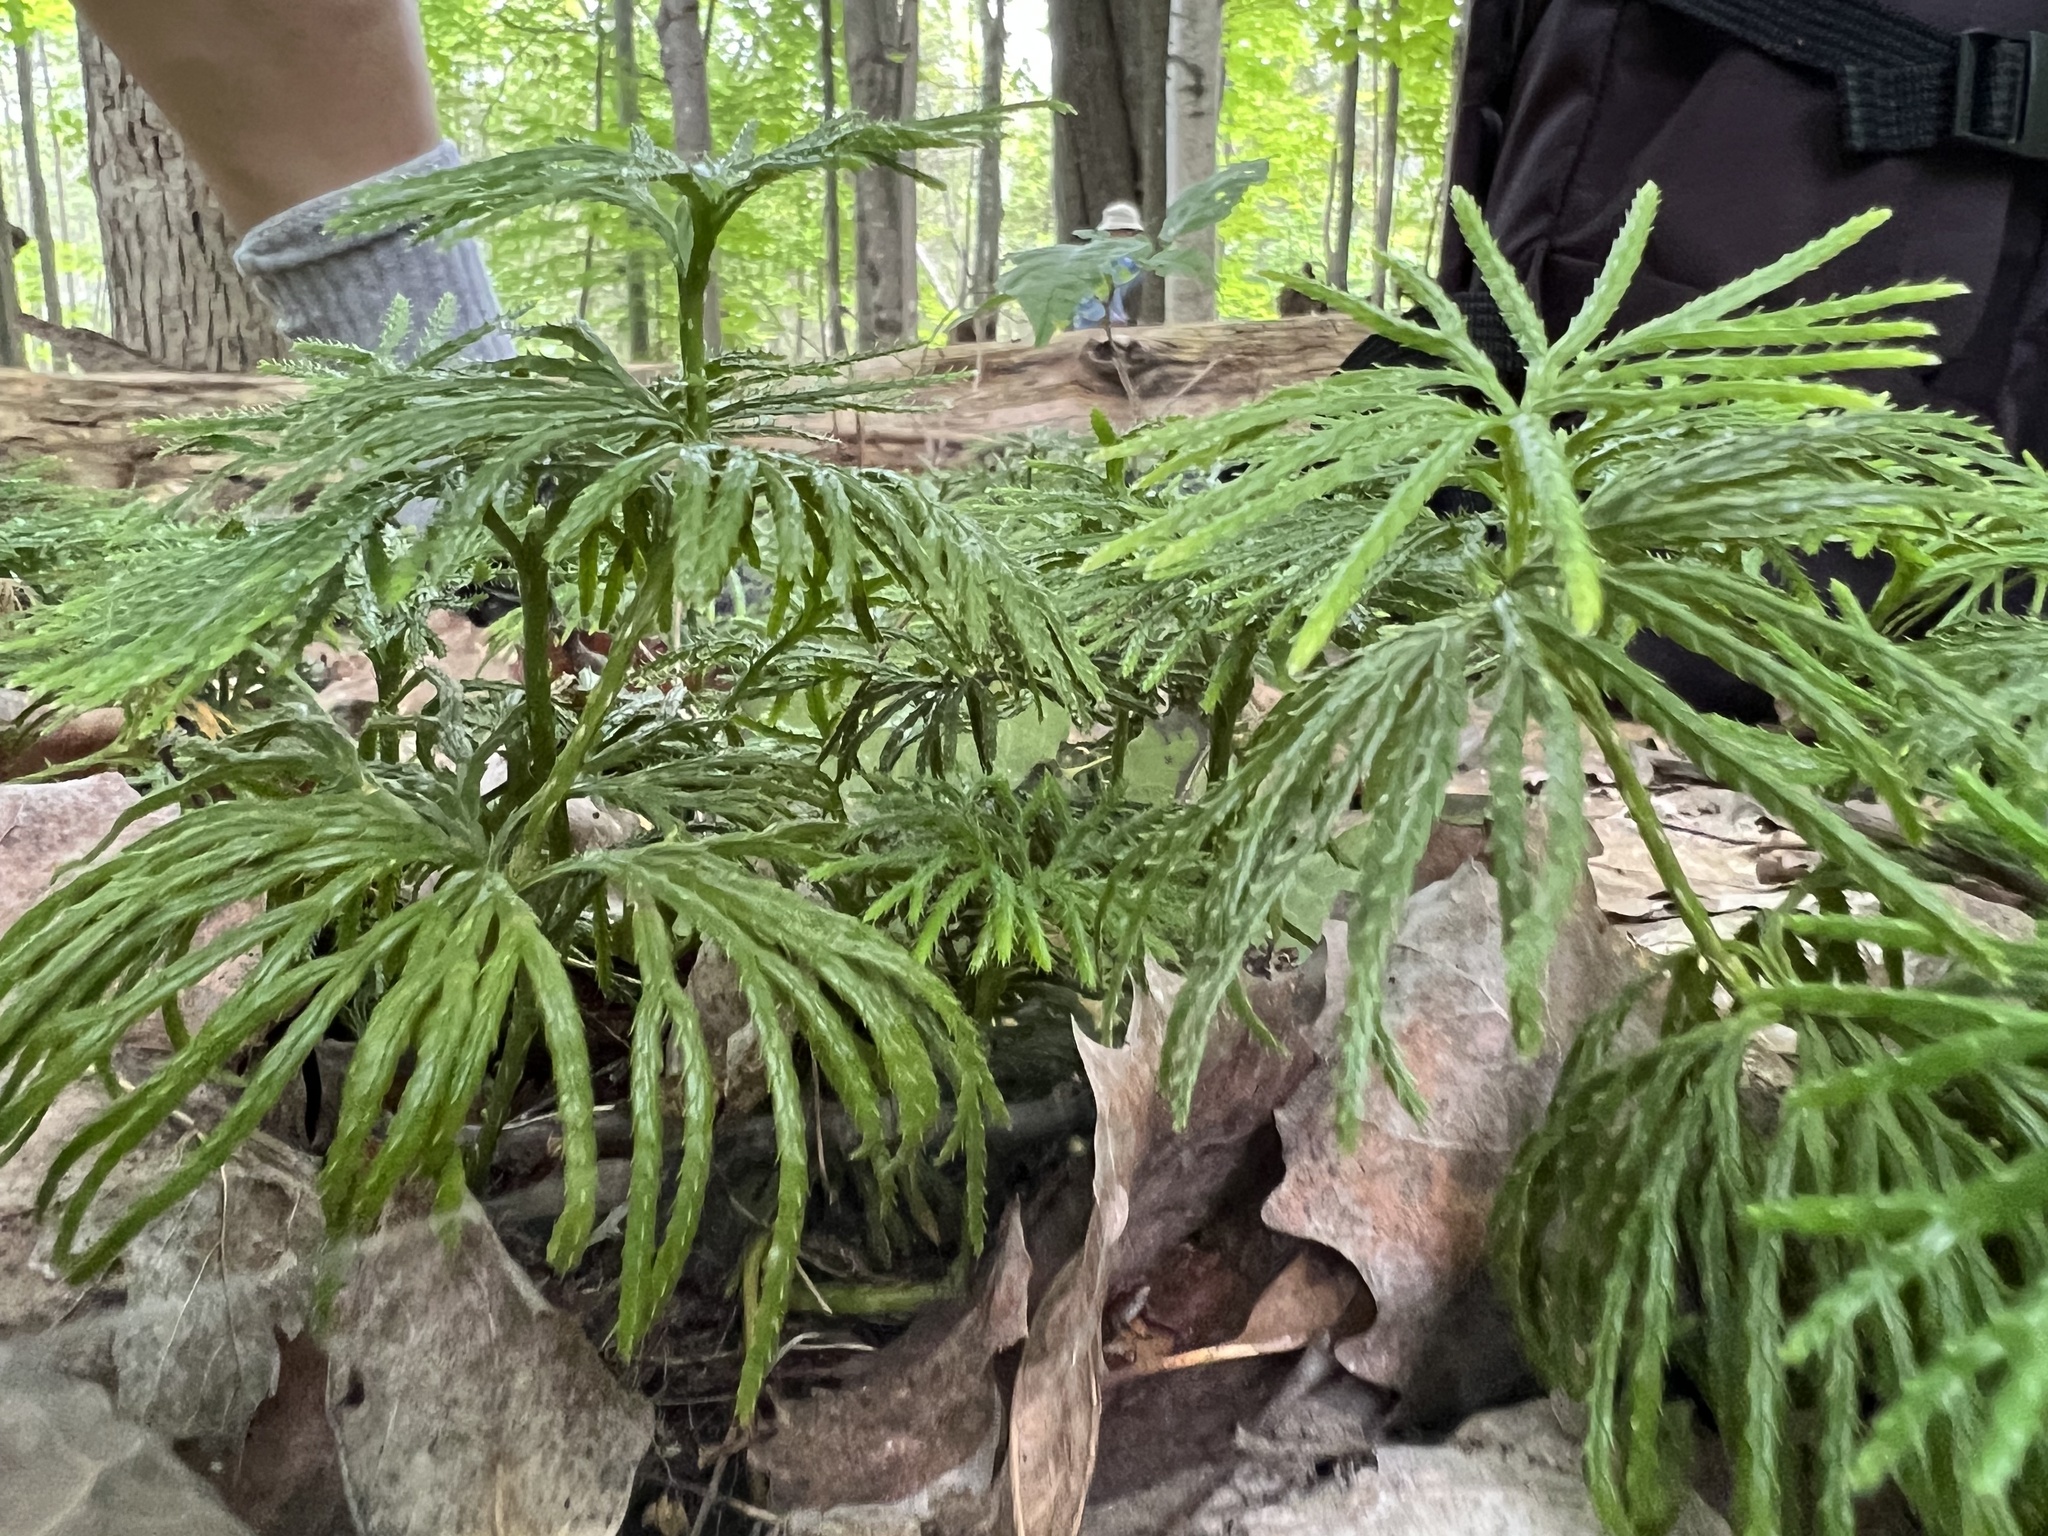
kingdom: Plantae
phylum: Tracheophyta
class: Lycopodiopsida
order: Lycopodiales
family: Lycopodiaceae
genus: Diphasiastrum
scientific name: Diphasiastrum digitatum
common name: Southern running-pine
